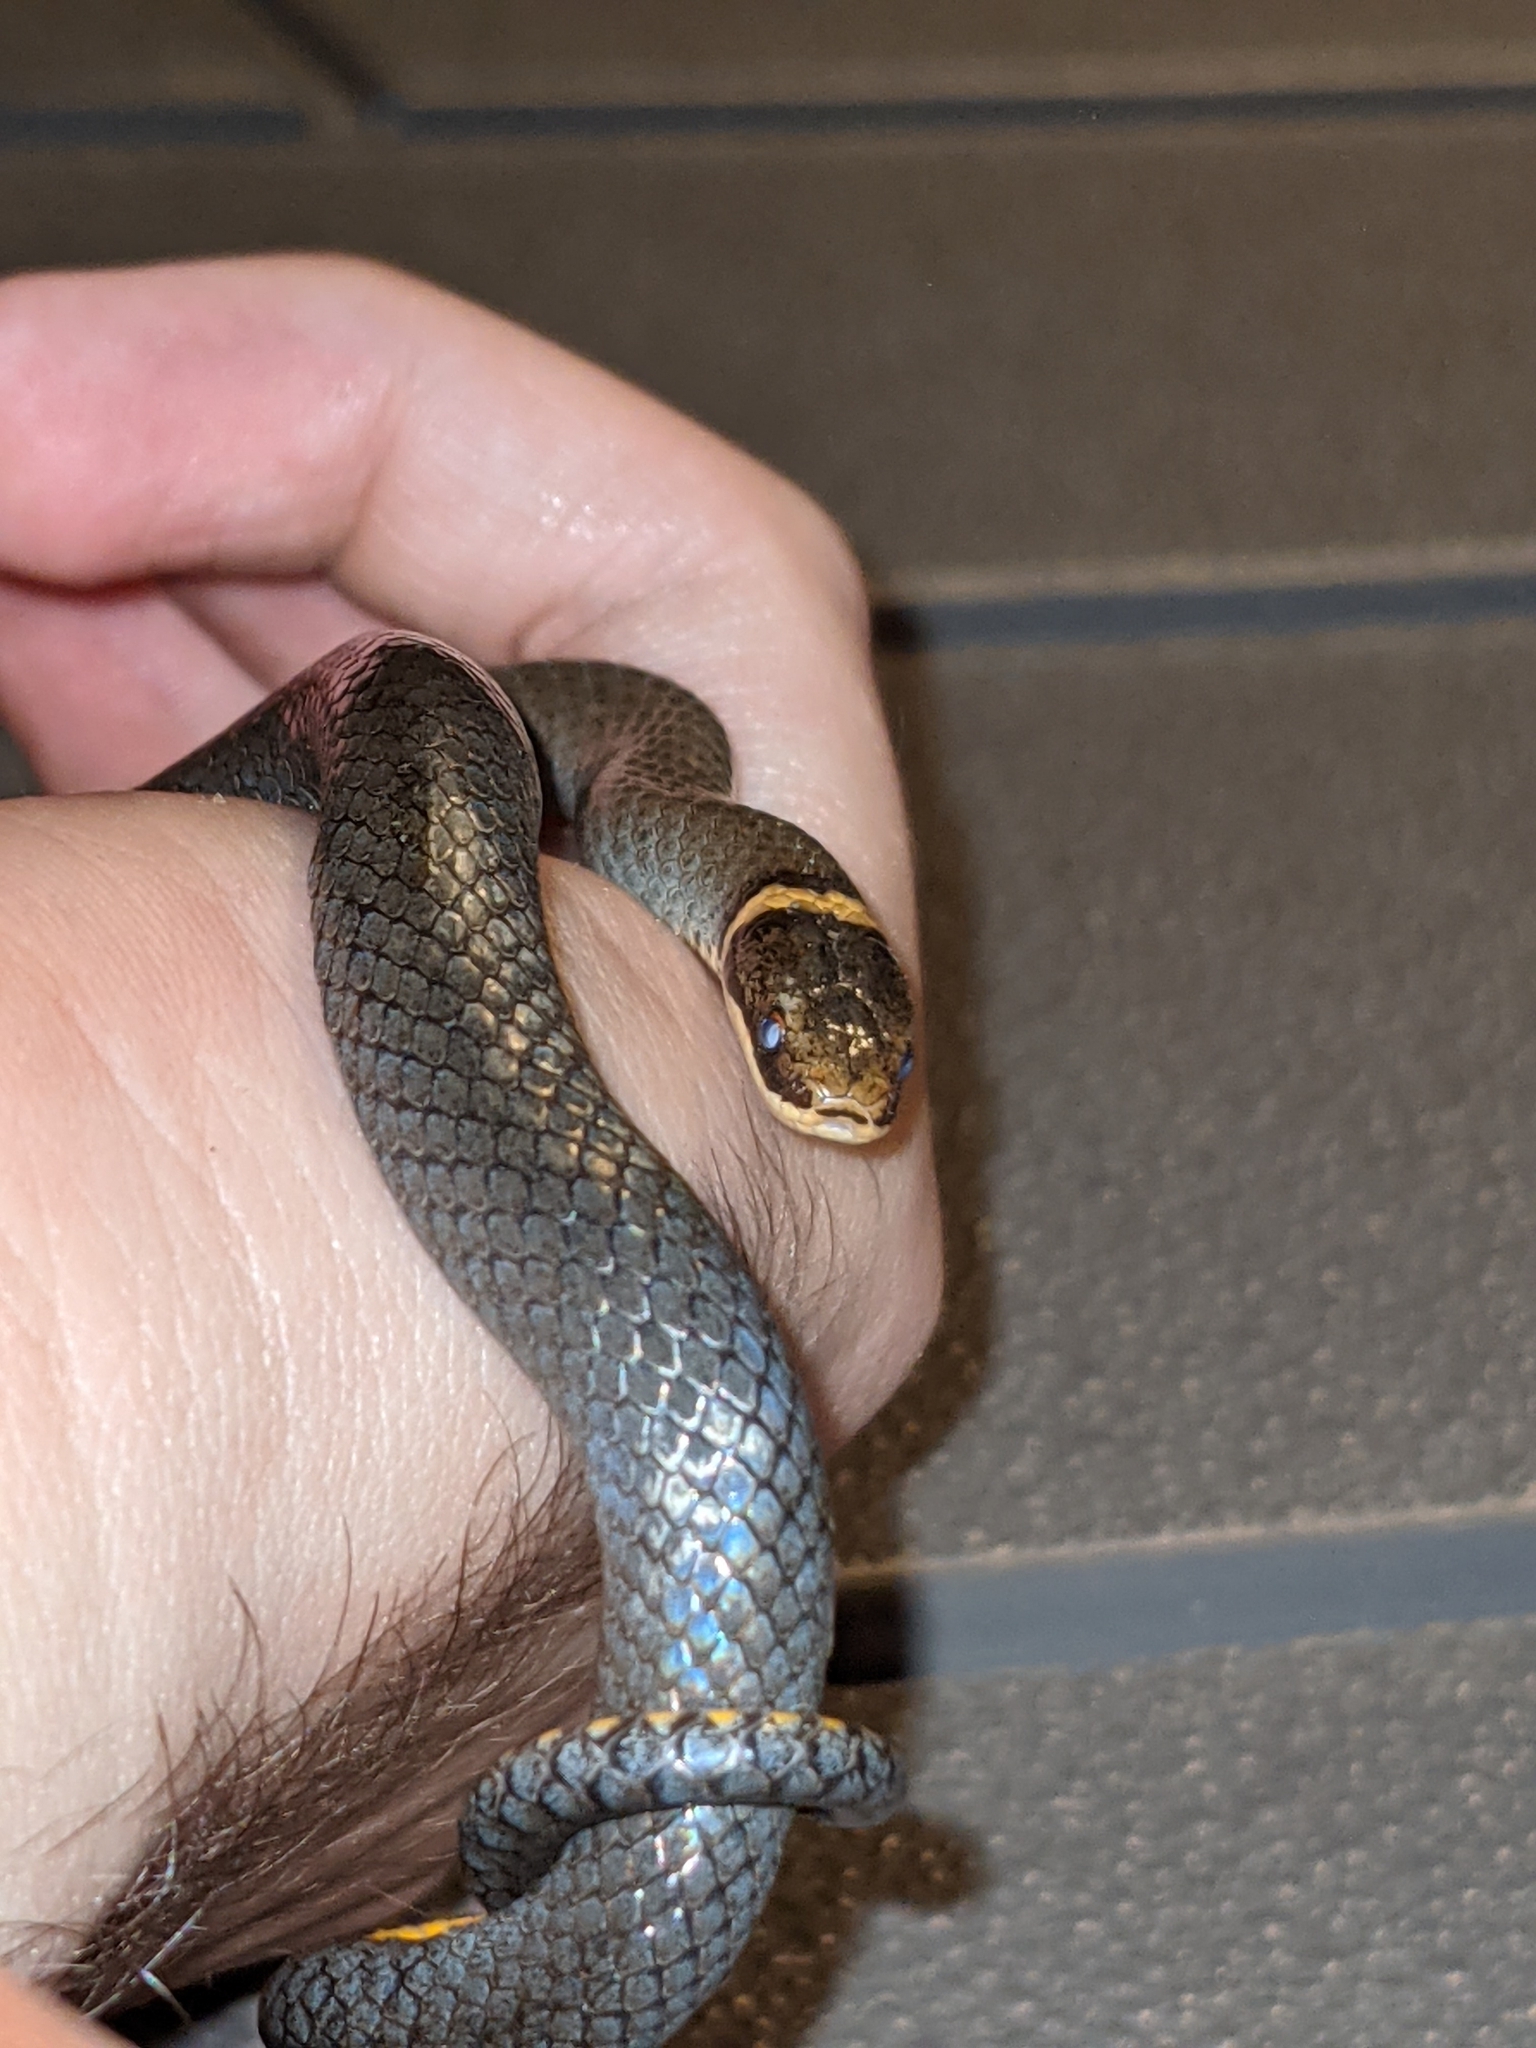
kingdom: Animalia
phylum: Chordata
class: Squamata
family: Colubridae
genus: Diadophis
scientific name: Diadophis punctatus
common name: Ringneck snake
